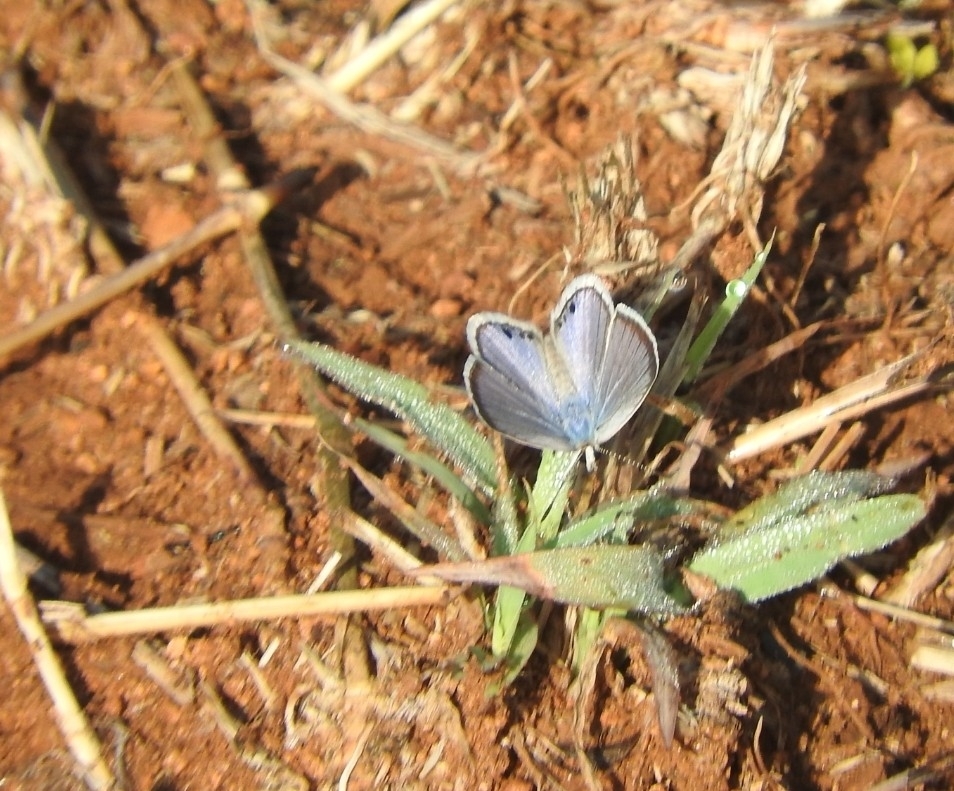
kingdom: Animalia
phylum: Arthropoda
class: Insecta
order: Lepidoptera
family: Lycaenidae
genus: Echinargus
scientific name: Echinargus isola
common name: Reakirt's blue
